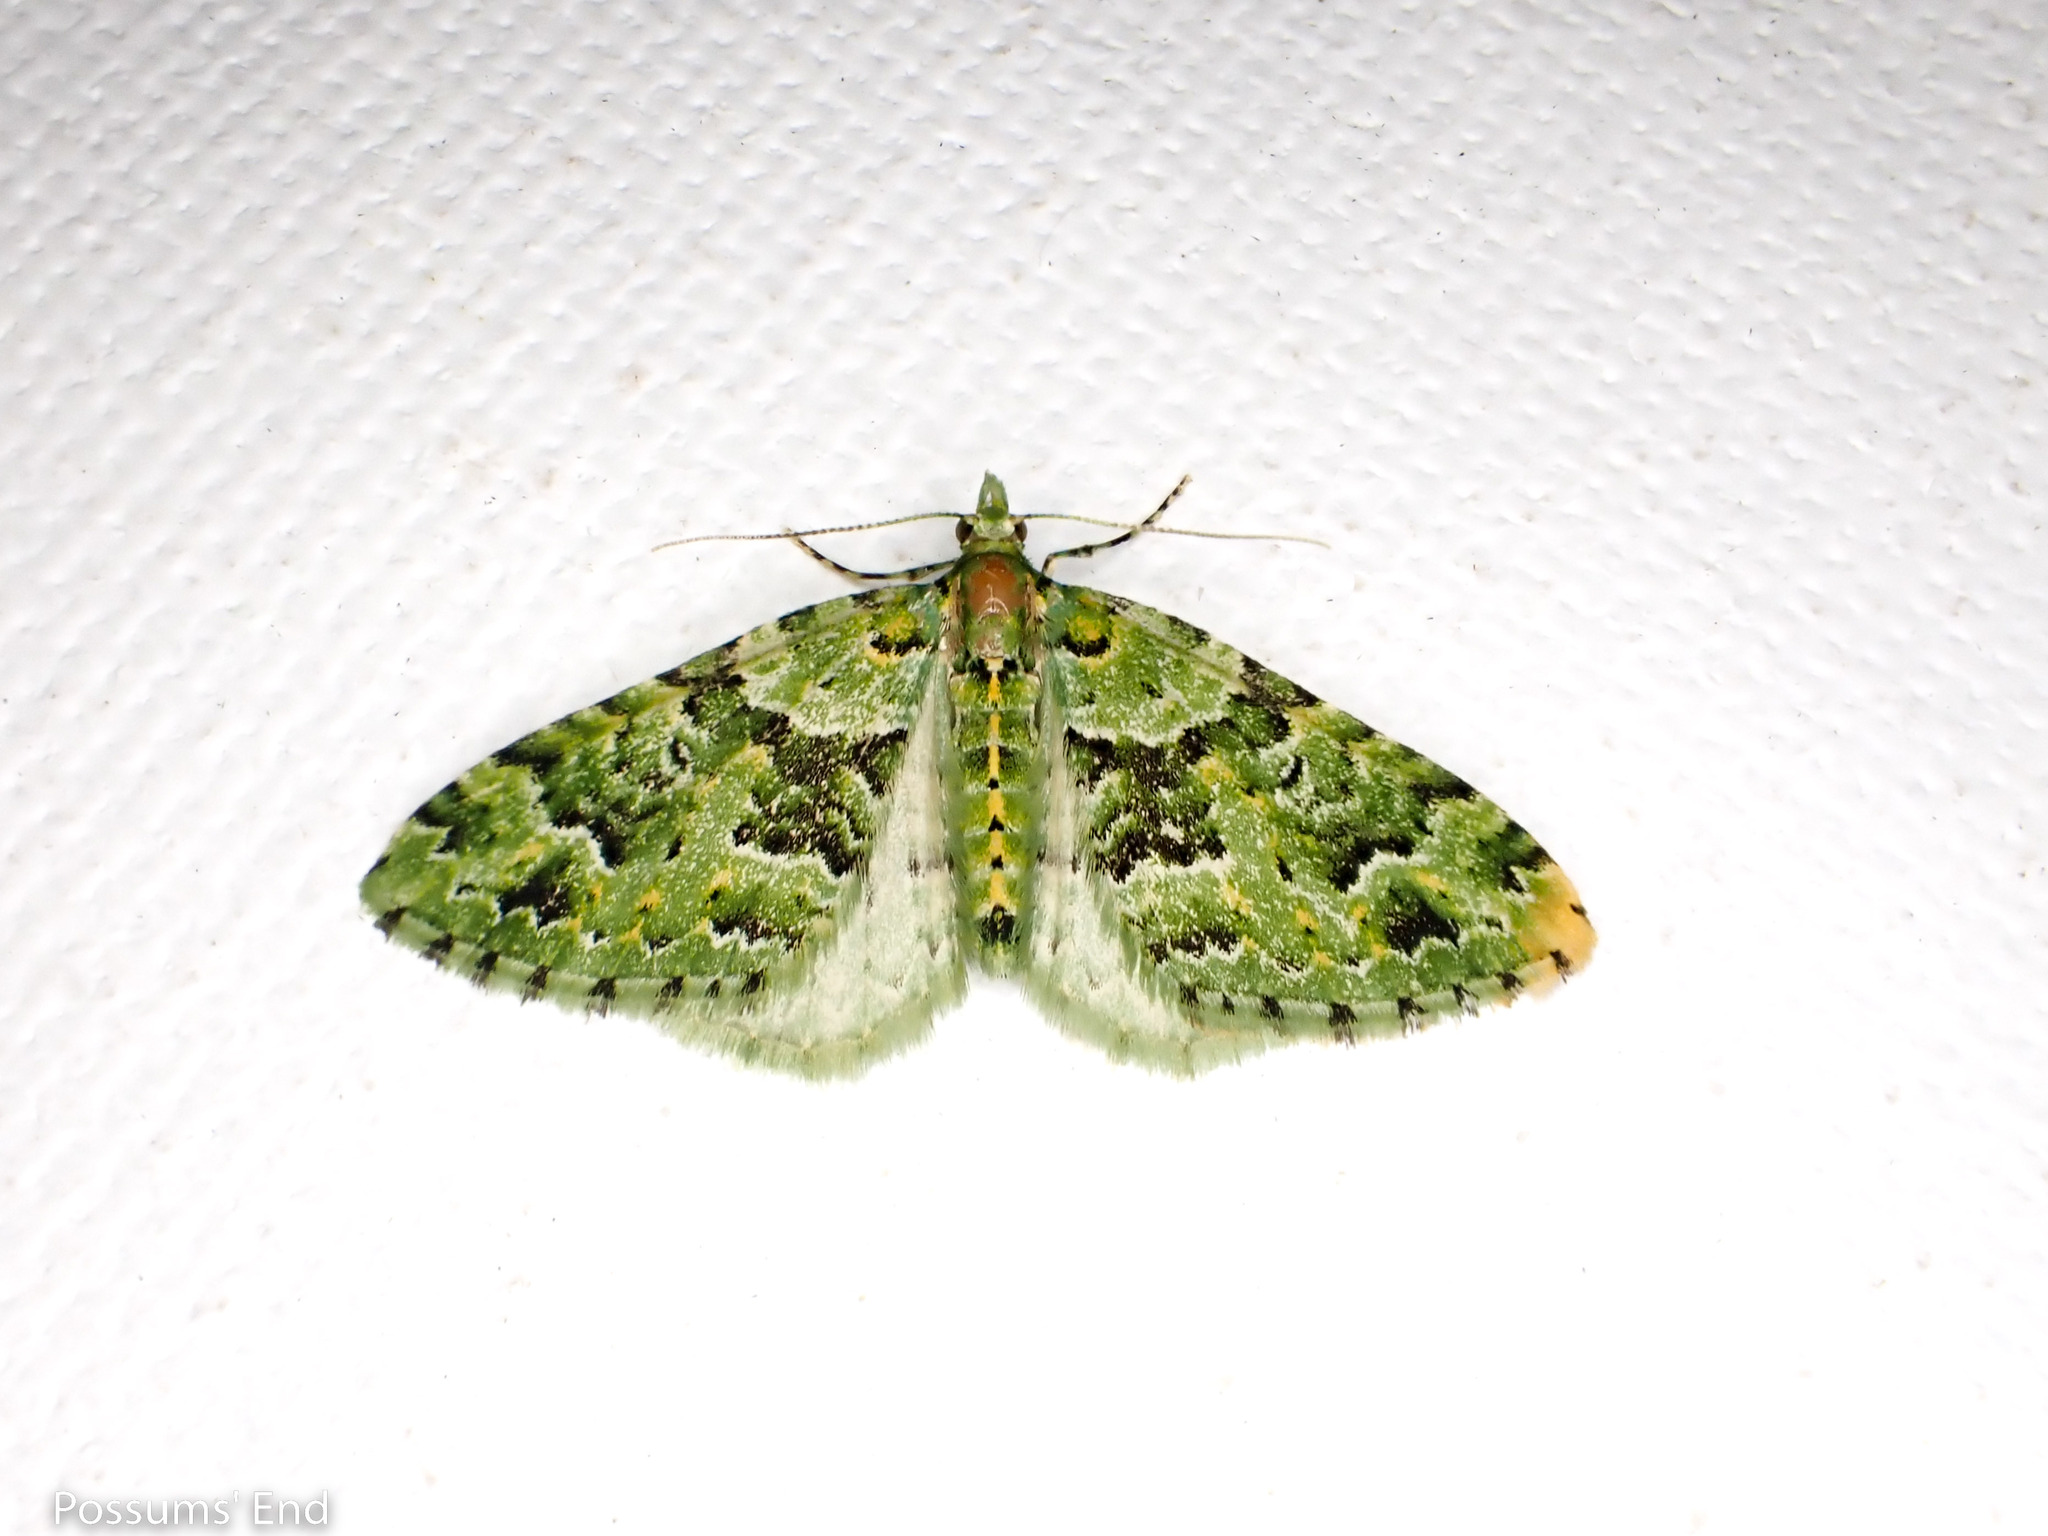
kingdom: Animalia
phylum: Arthropoda
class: Insecta
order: Lepidoptera
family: Geometridae
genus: Pasiphila
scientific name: Pasiphila melochlora
